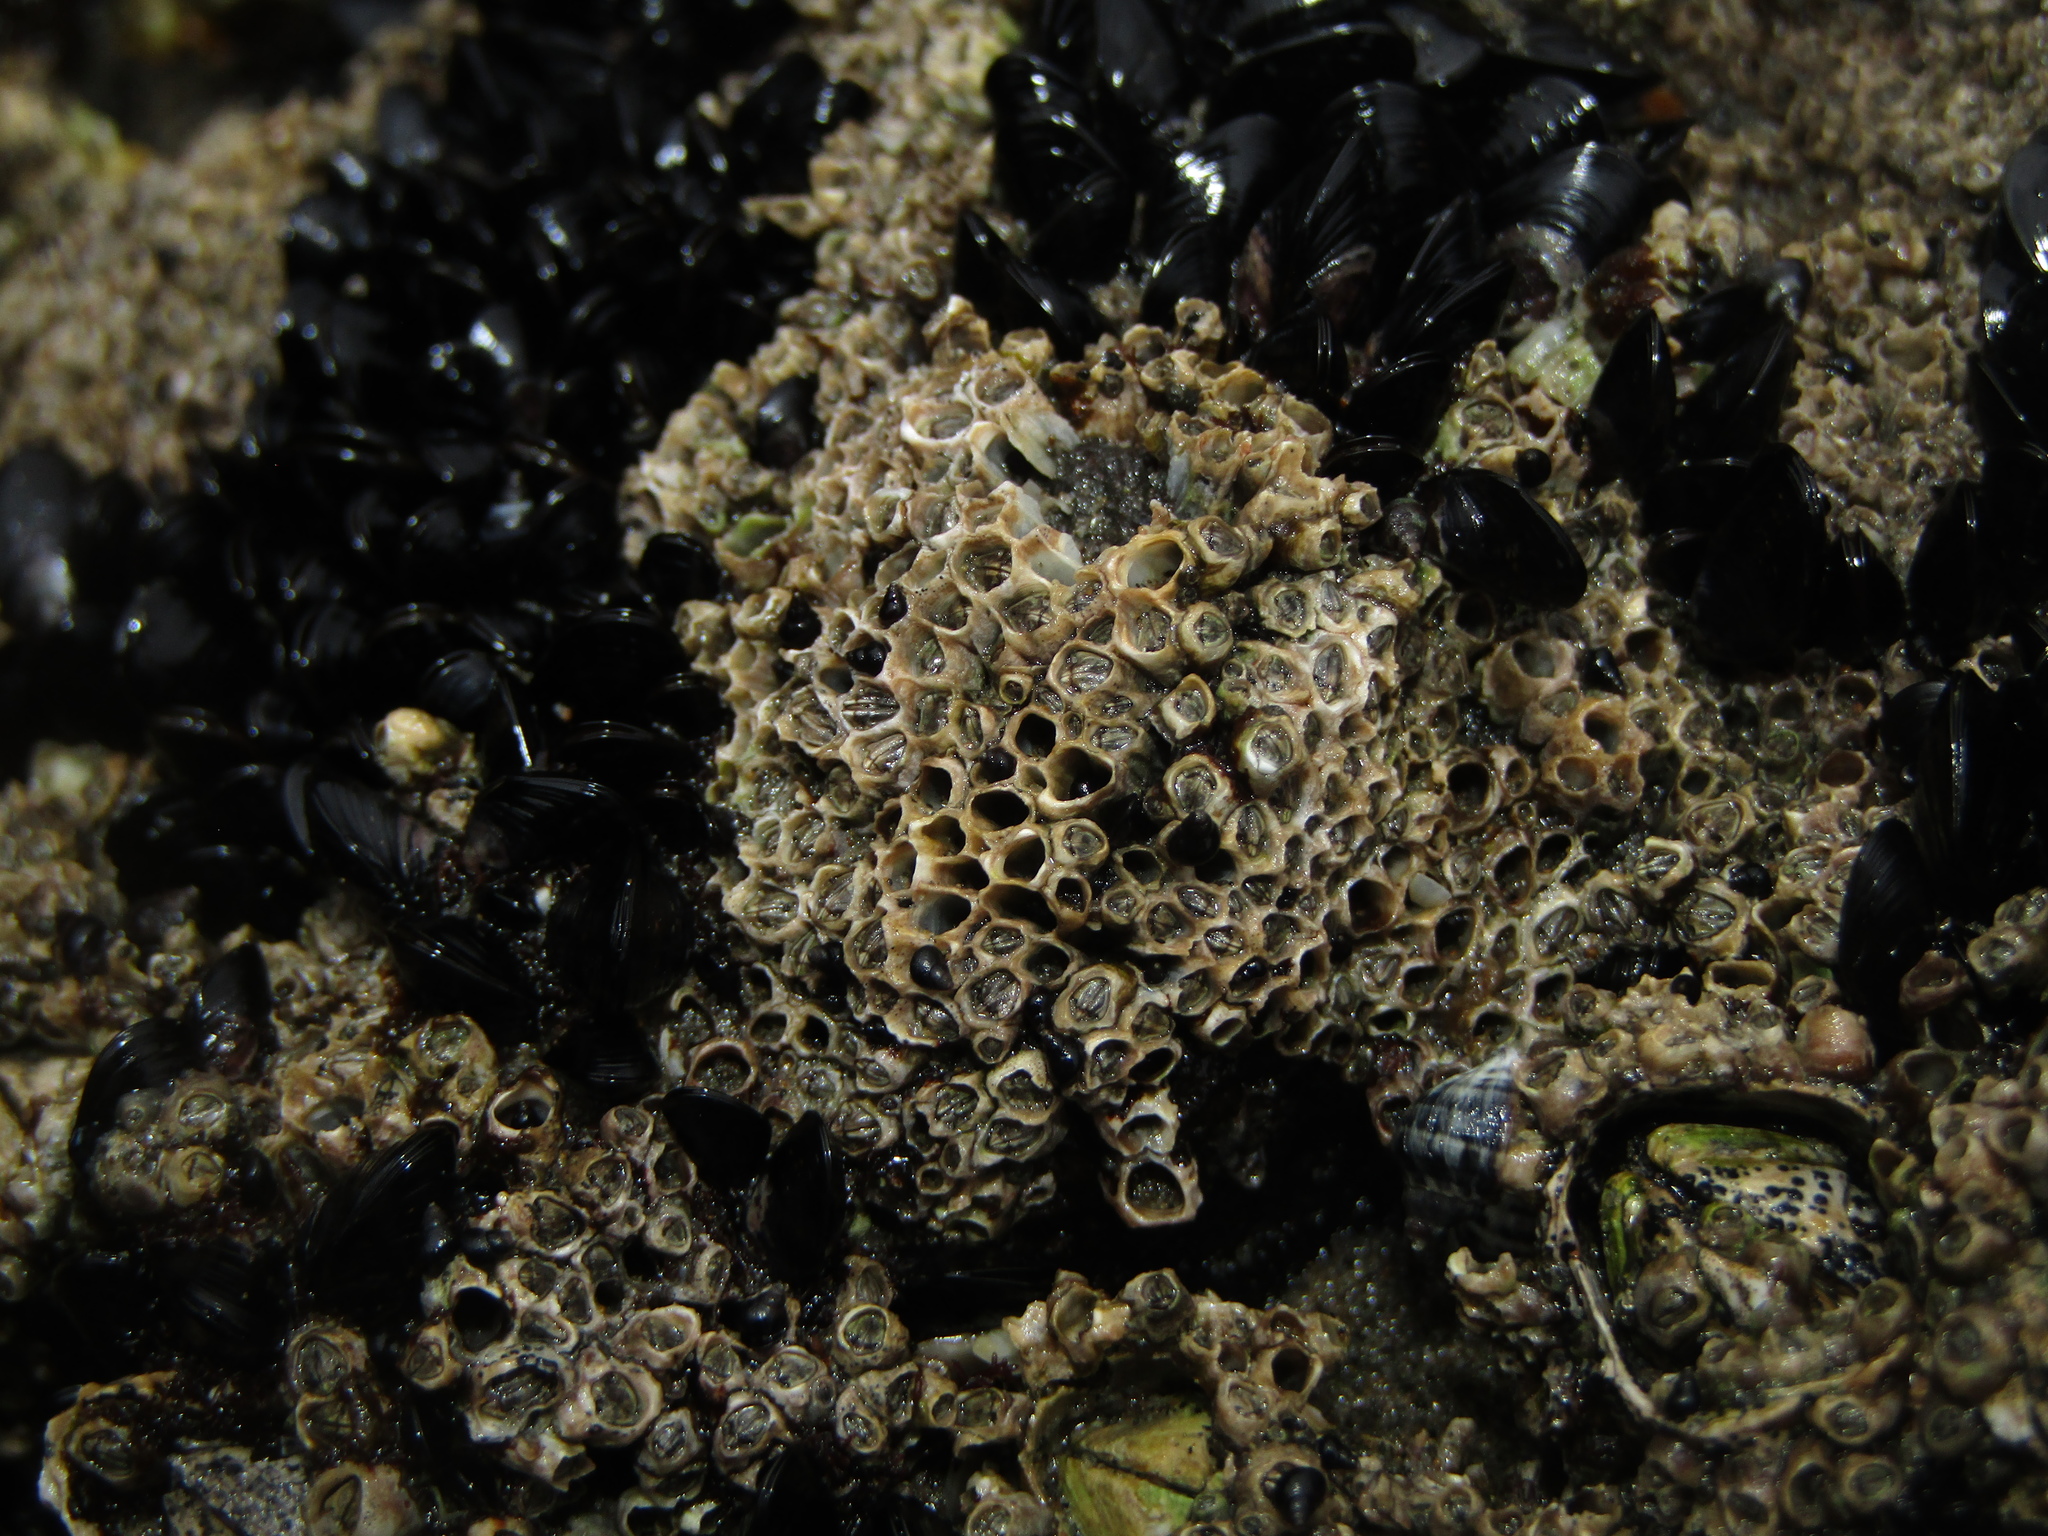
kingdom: Animalia
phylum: Arthropoda
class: Maxillopoda
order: Sessilia
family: Chthamalidae
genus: Chamaesipho
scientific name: Chamaesipho columna
